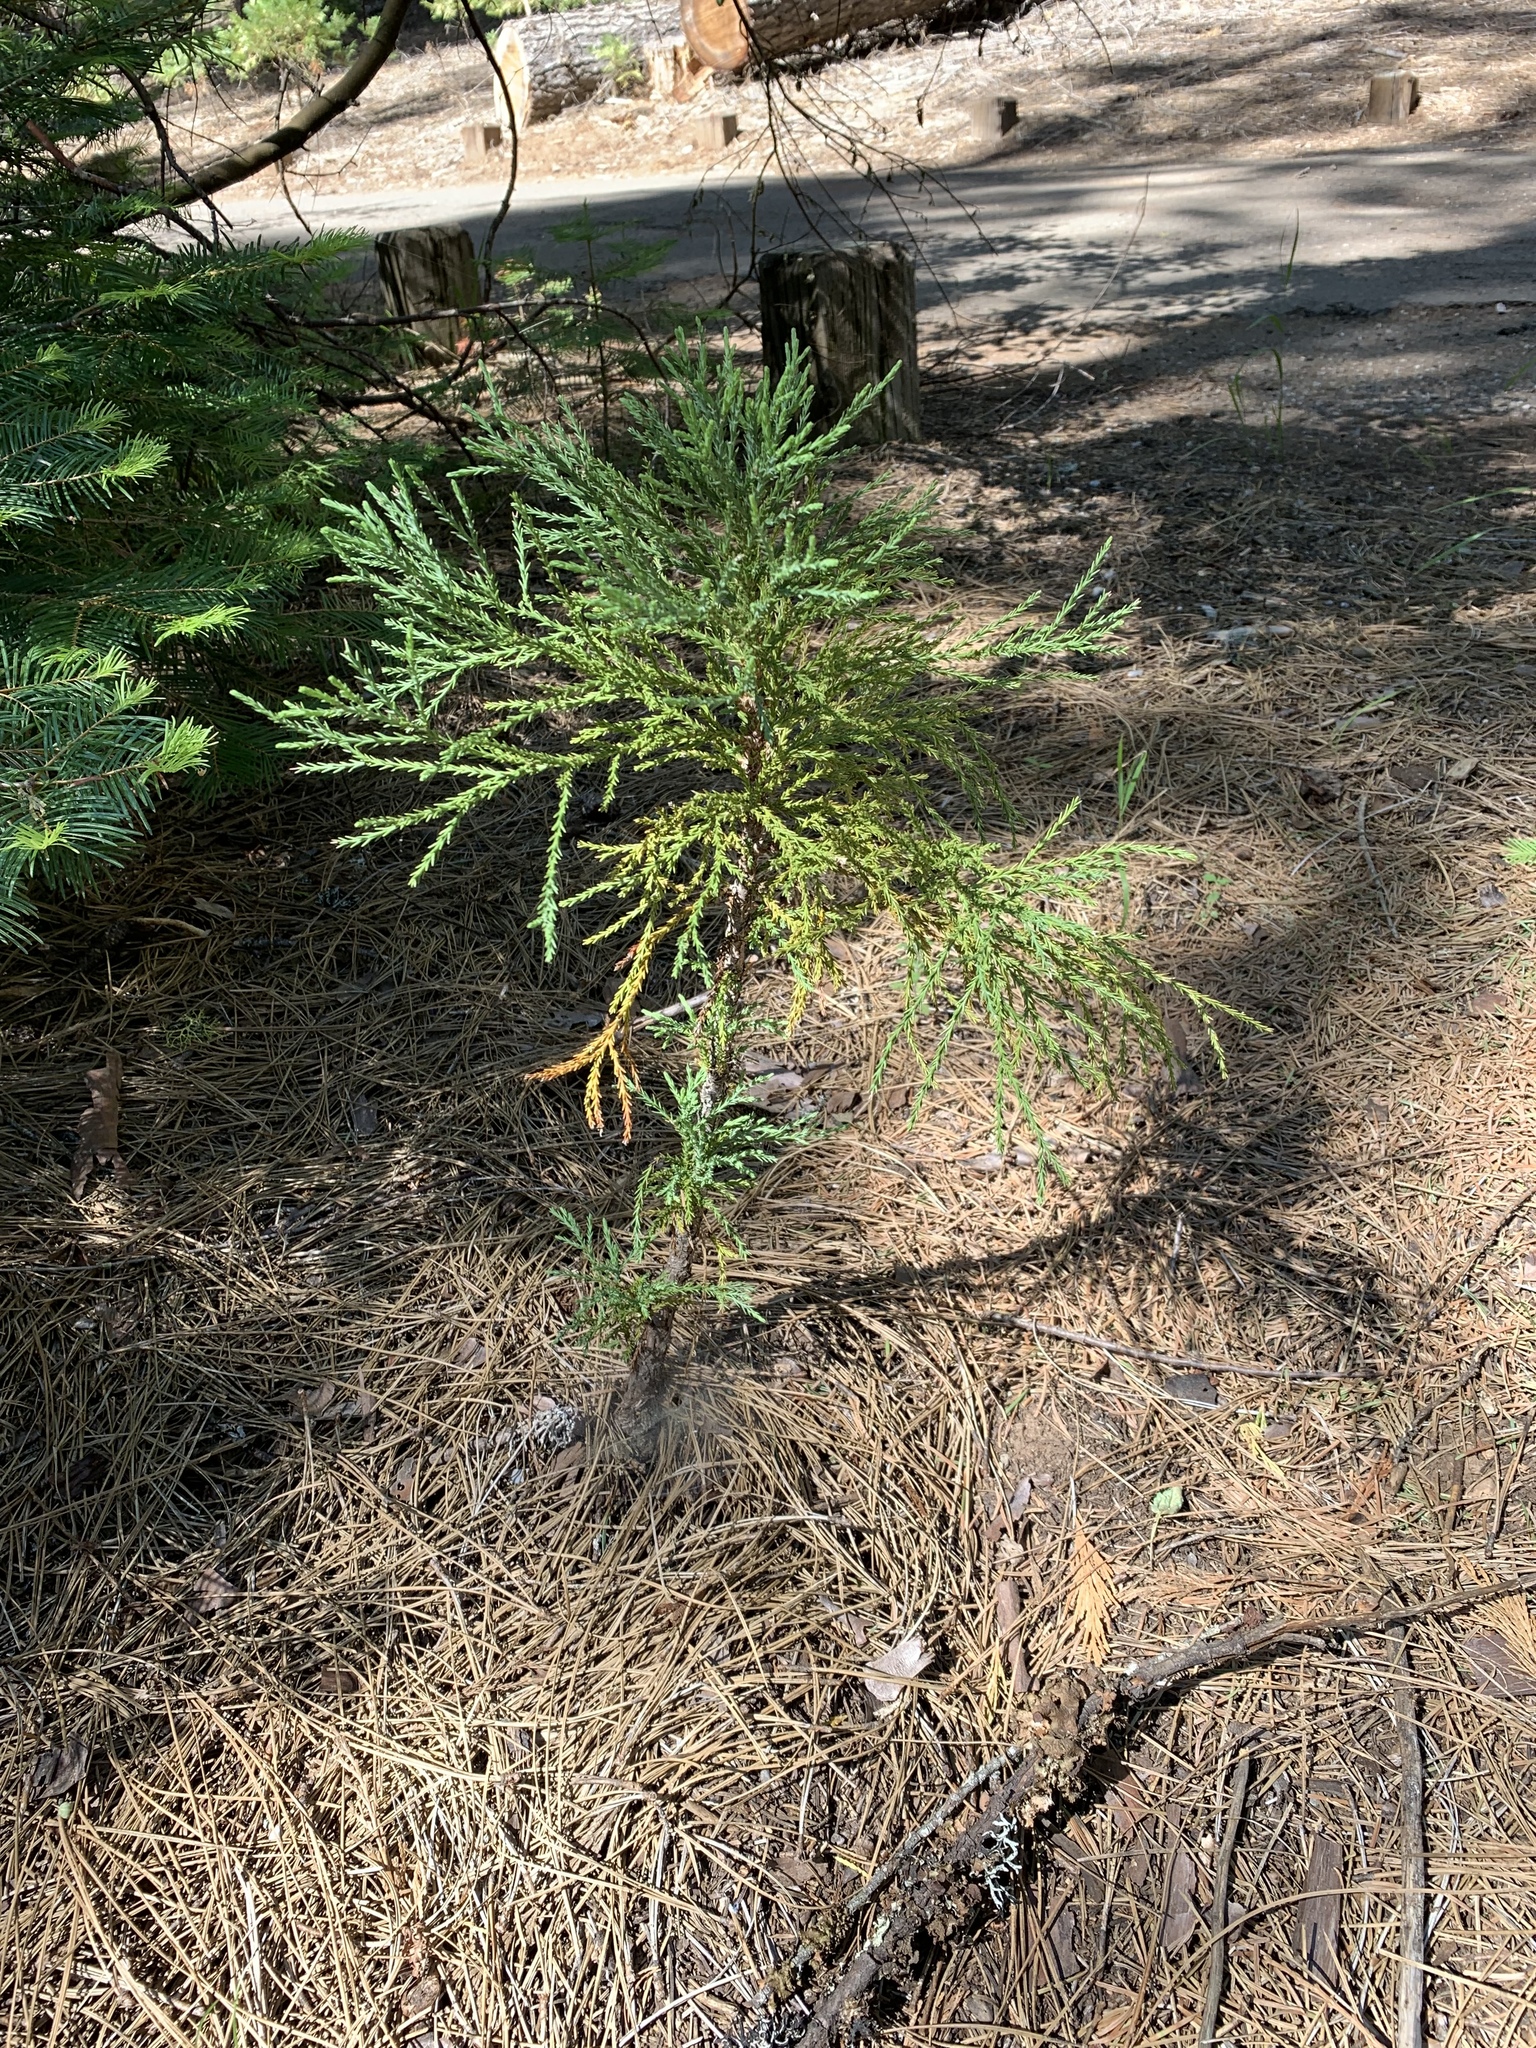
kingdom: Plantae
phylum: Tracheophyta
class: Pinopsida
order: Pinales
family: Cupressaceae
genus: Calocedrus
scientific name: Calocedrus decurrens
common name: Californian incense-cedar
